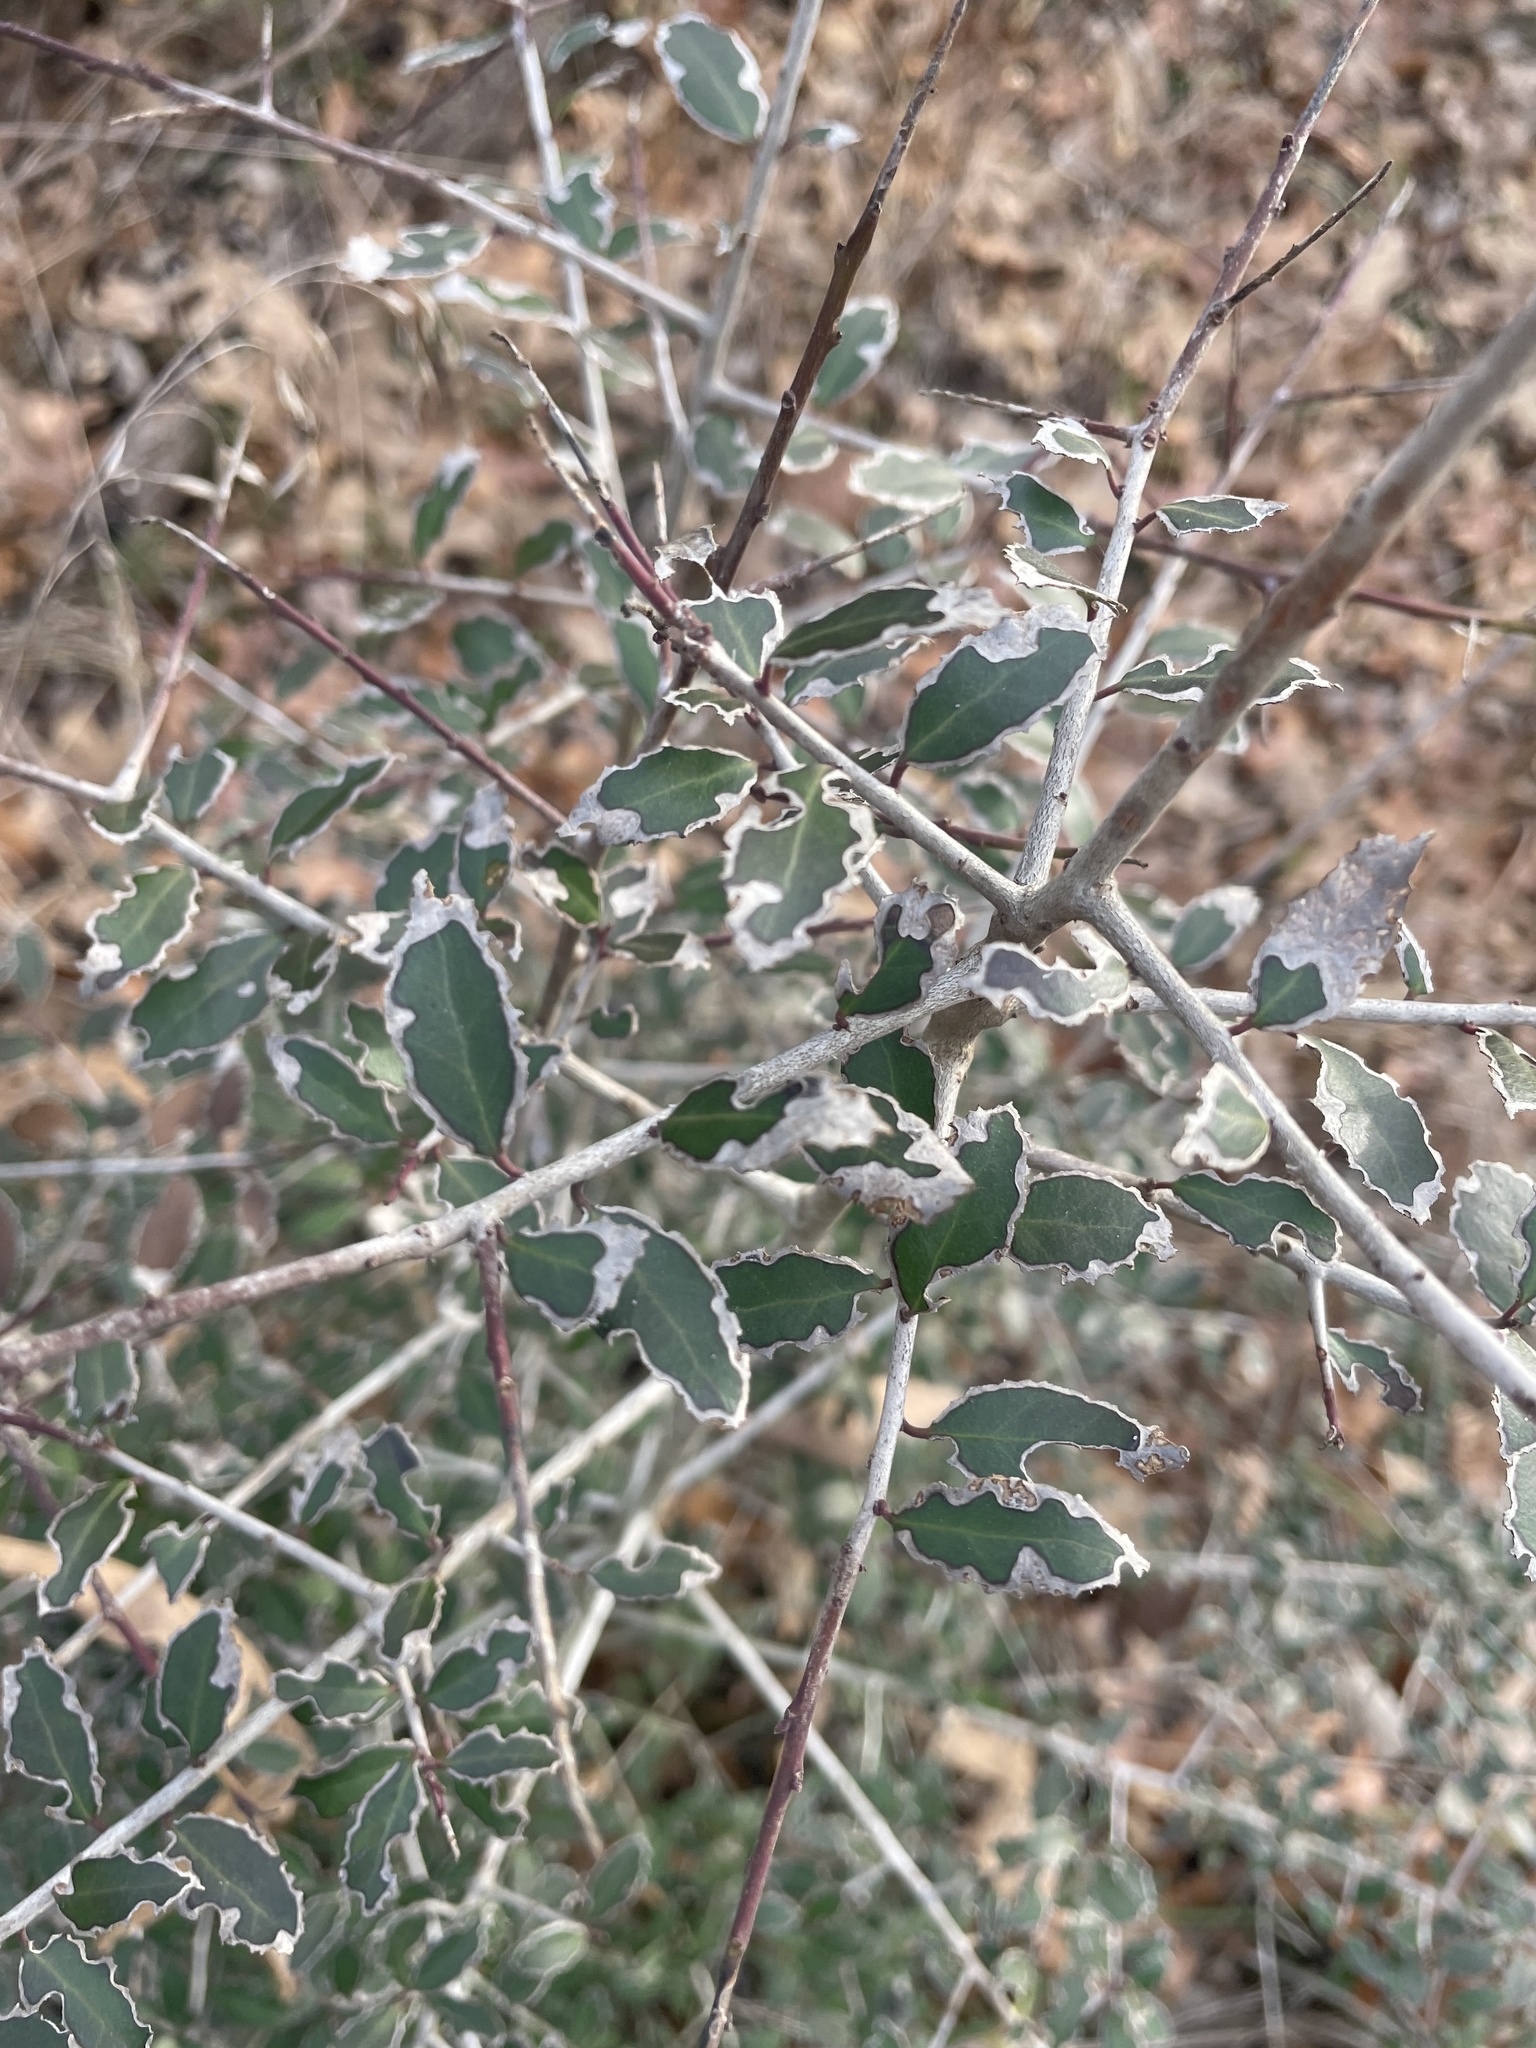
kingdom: Plantae
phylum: Tracheophyta
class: Magnoliopsida
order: Aquifoliales
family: Aquifoliaceae
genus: Ilex
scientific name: Ilex vomitoria
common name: Yaupon holly
